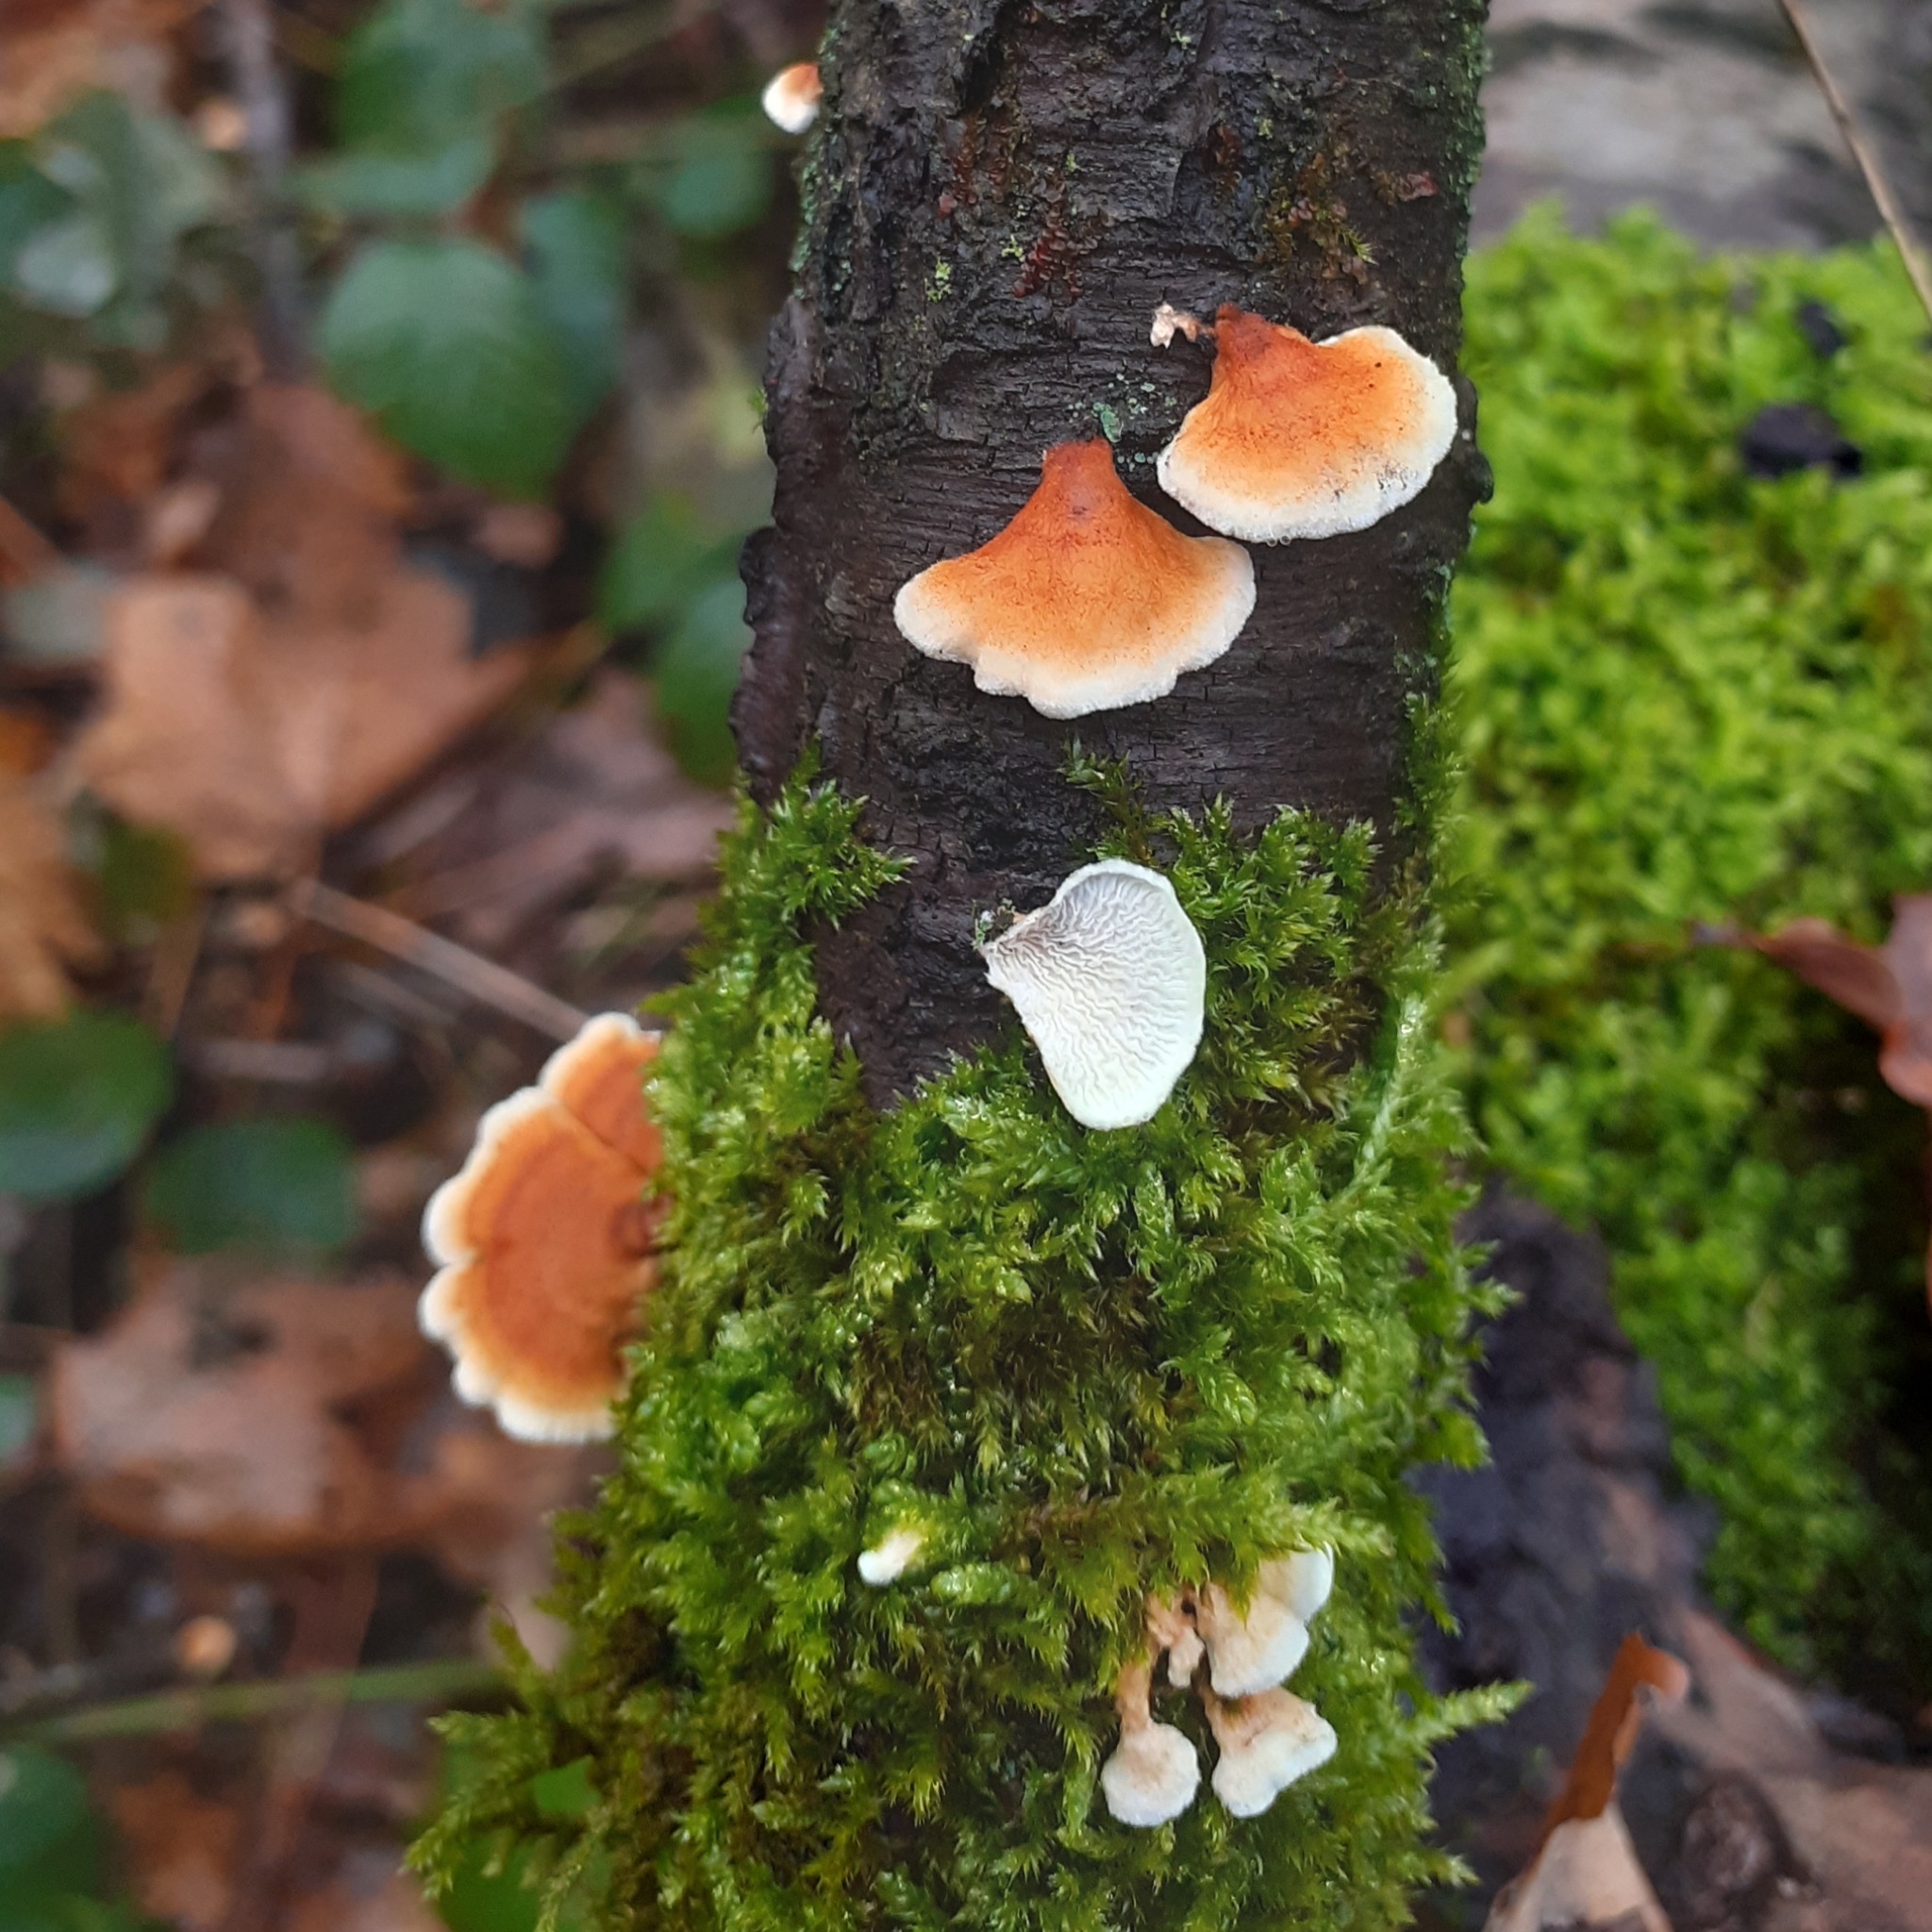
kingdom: Fungi
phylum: Basidiomycota
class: Agaricomycetes
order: Amylocorticiales
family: Amylocorticiaceae
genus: Plicaturopsis
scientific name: Plicaturopsis crispa
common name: Crimped gill
